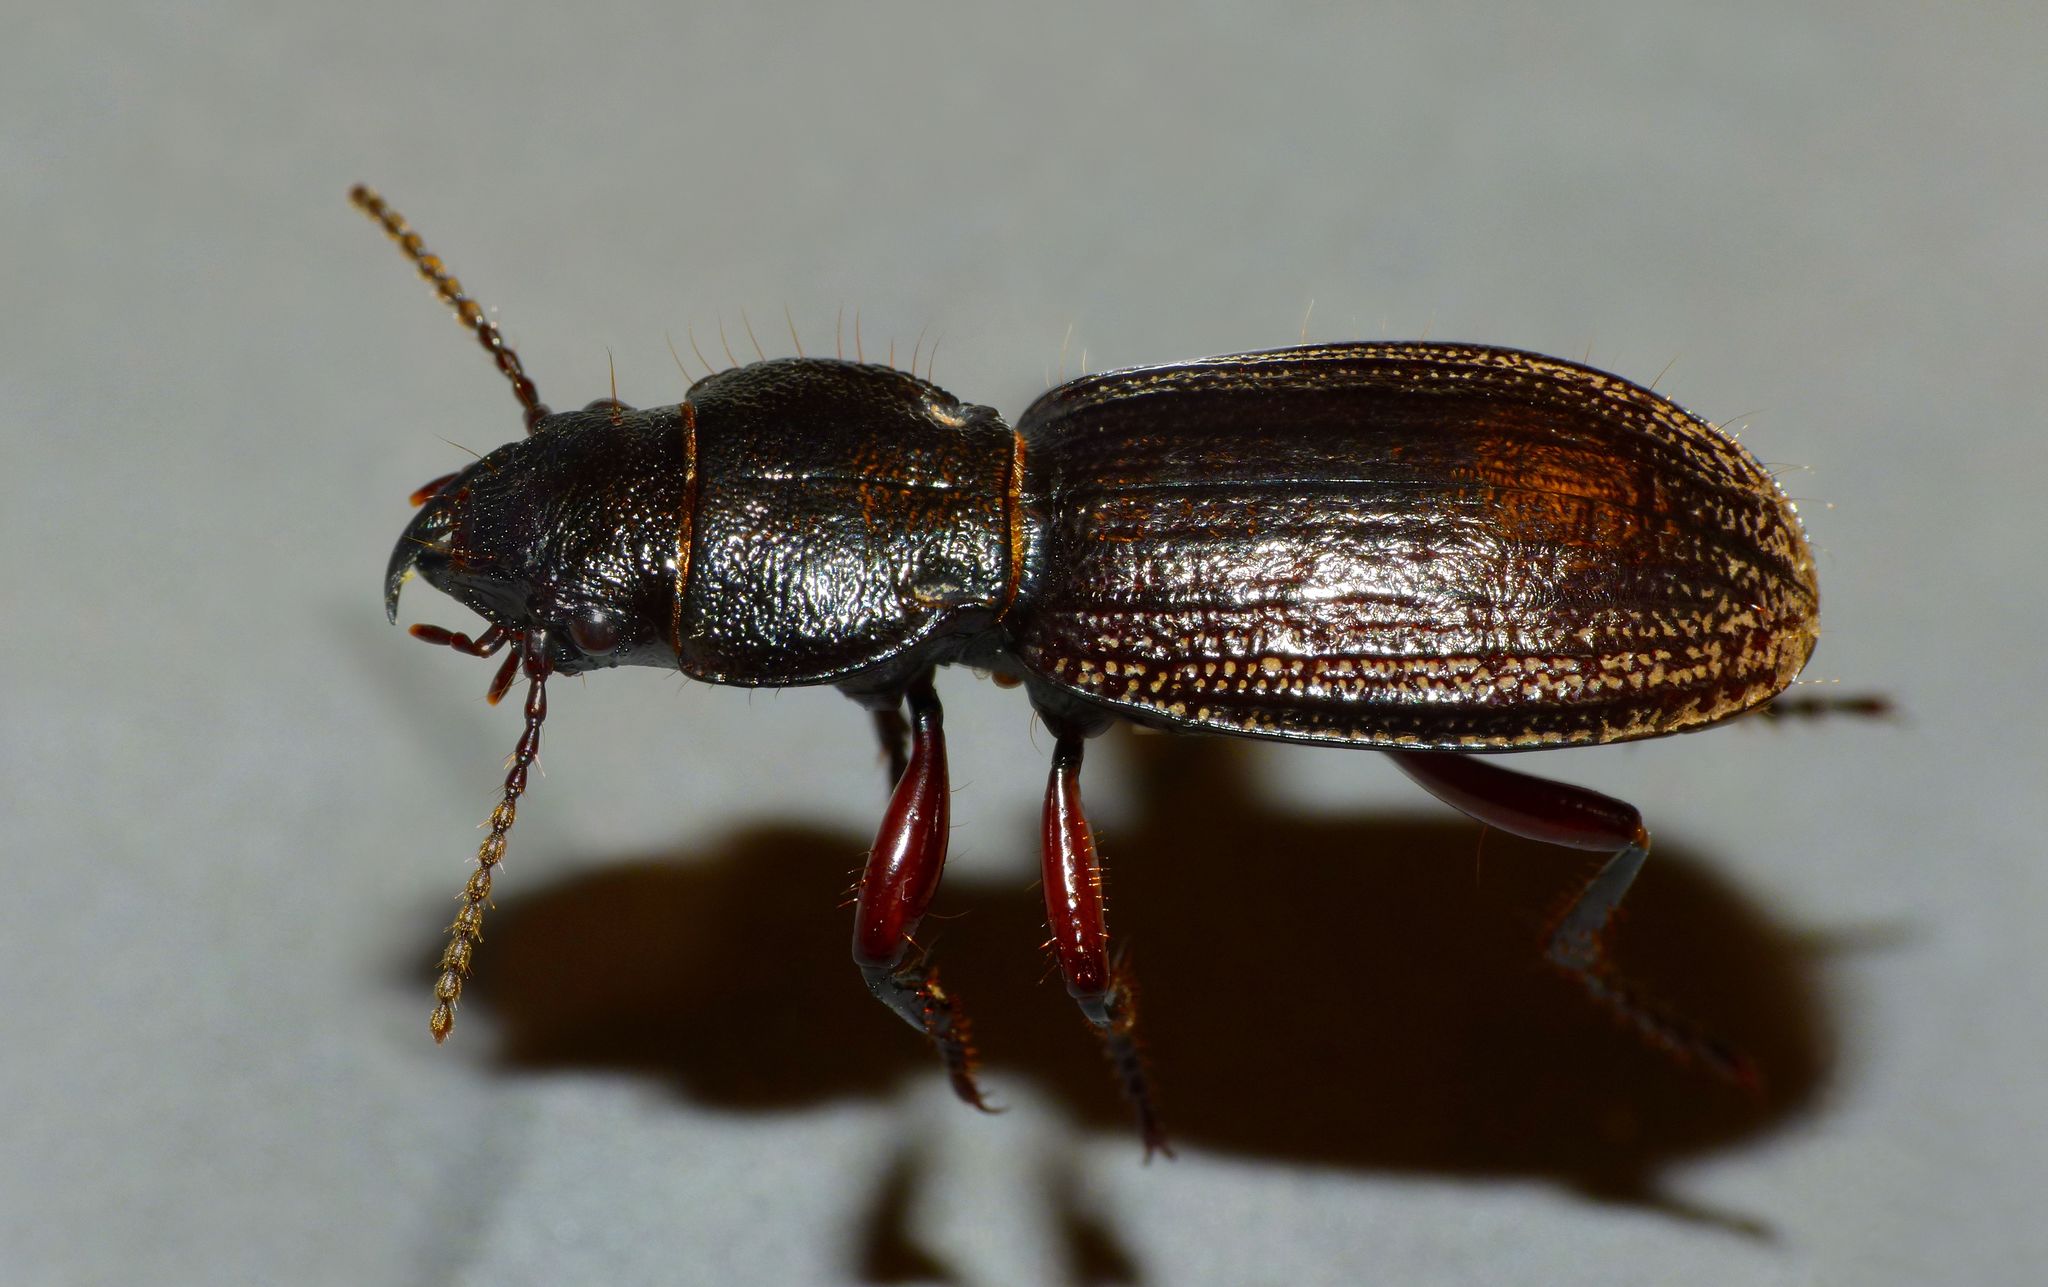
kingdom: Animalia
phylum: Arthropoda
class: Insecta
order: Coleoptera
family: Carabidae
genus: Mecodema
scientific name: Mecodema sculpturatum
